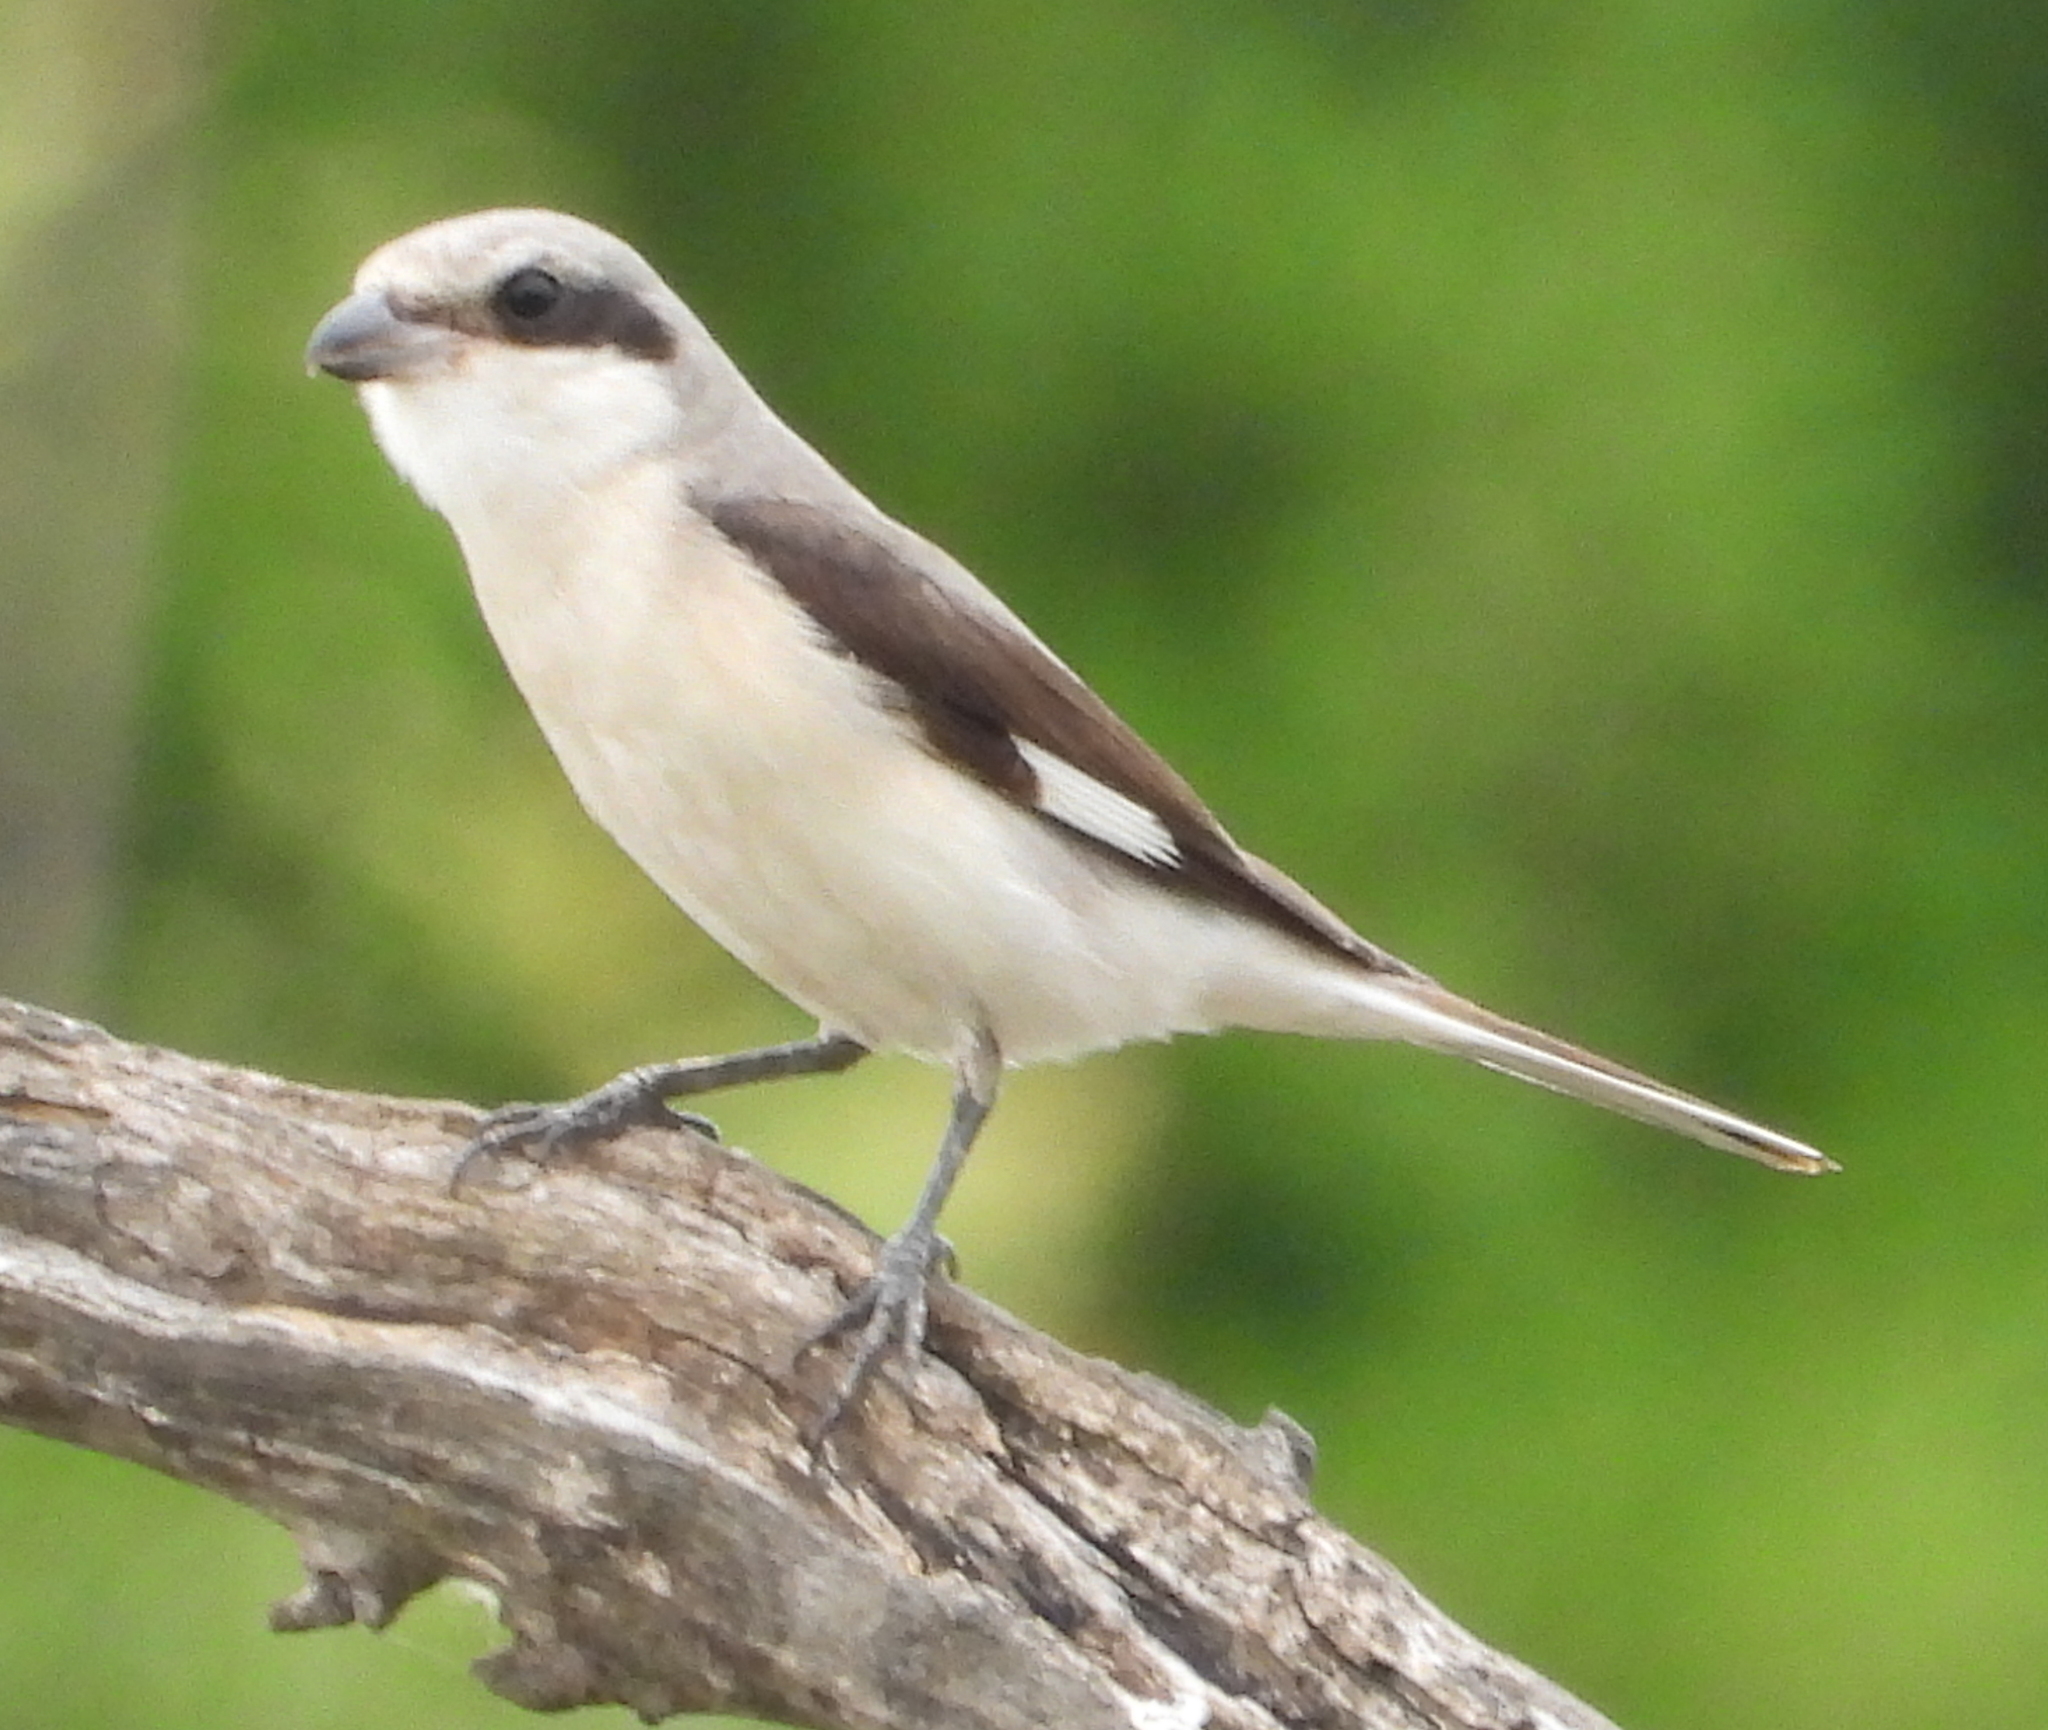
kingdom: Animalia
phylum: Chordata
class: Aves
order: Passeriformes
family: Laniidae
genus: Lanius
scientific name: Lanius minor
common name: Lesser grey shrike
